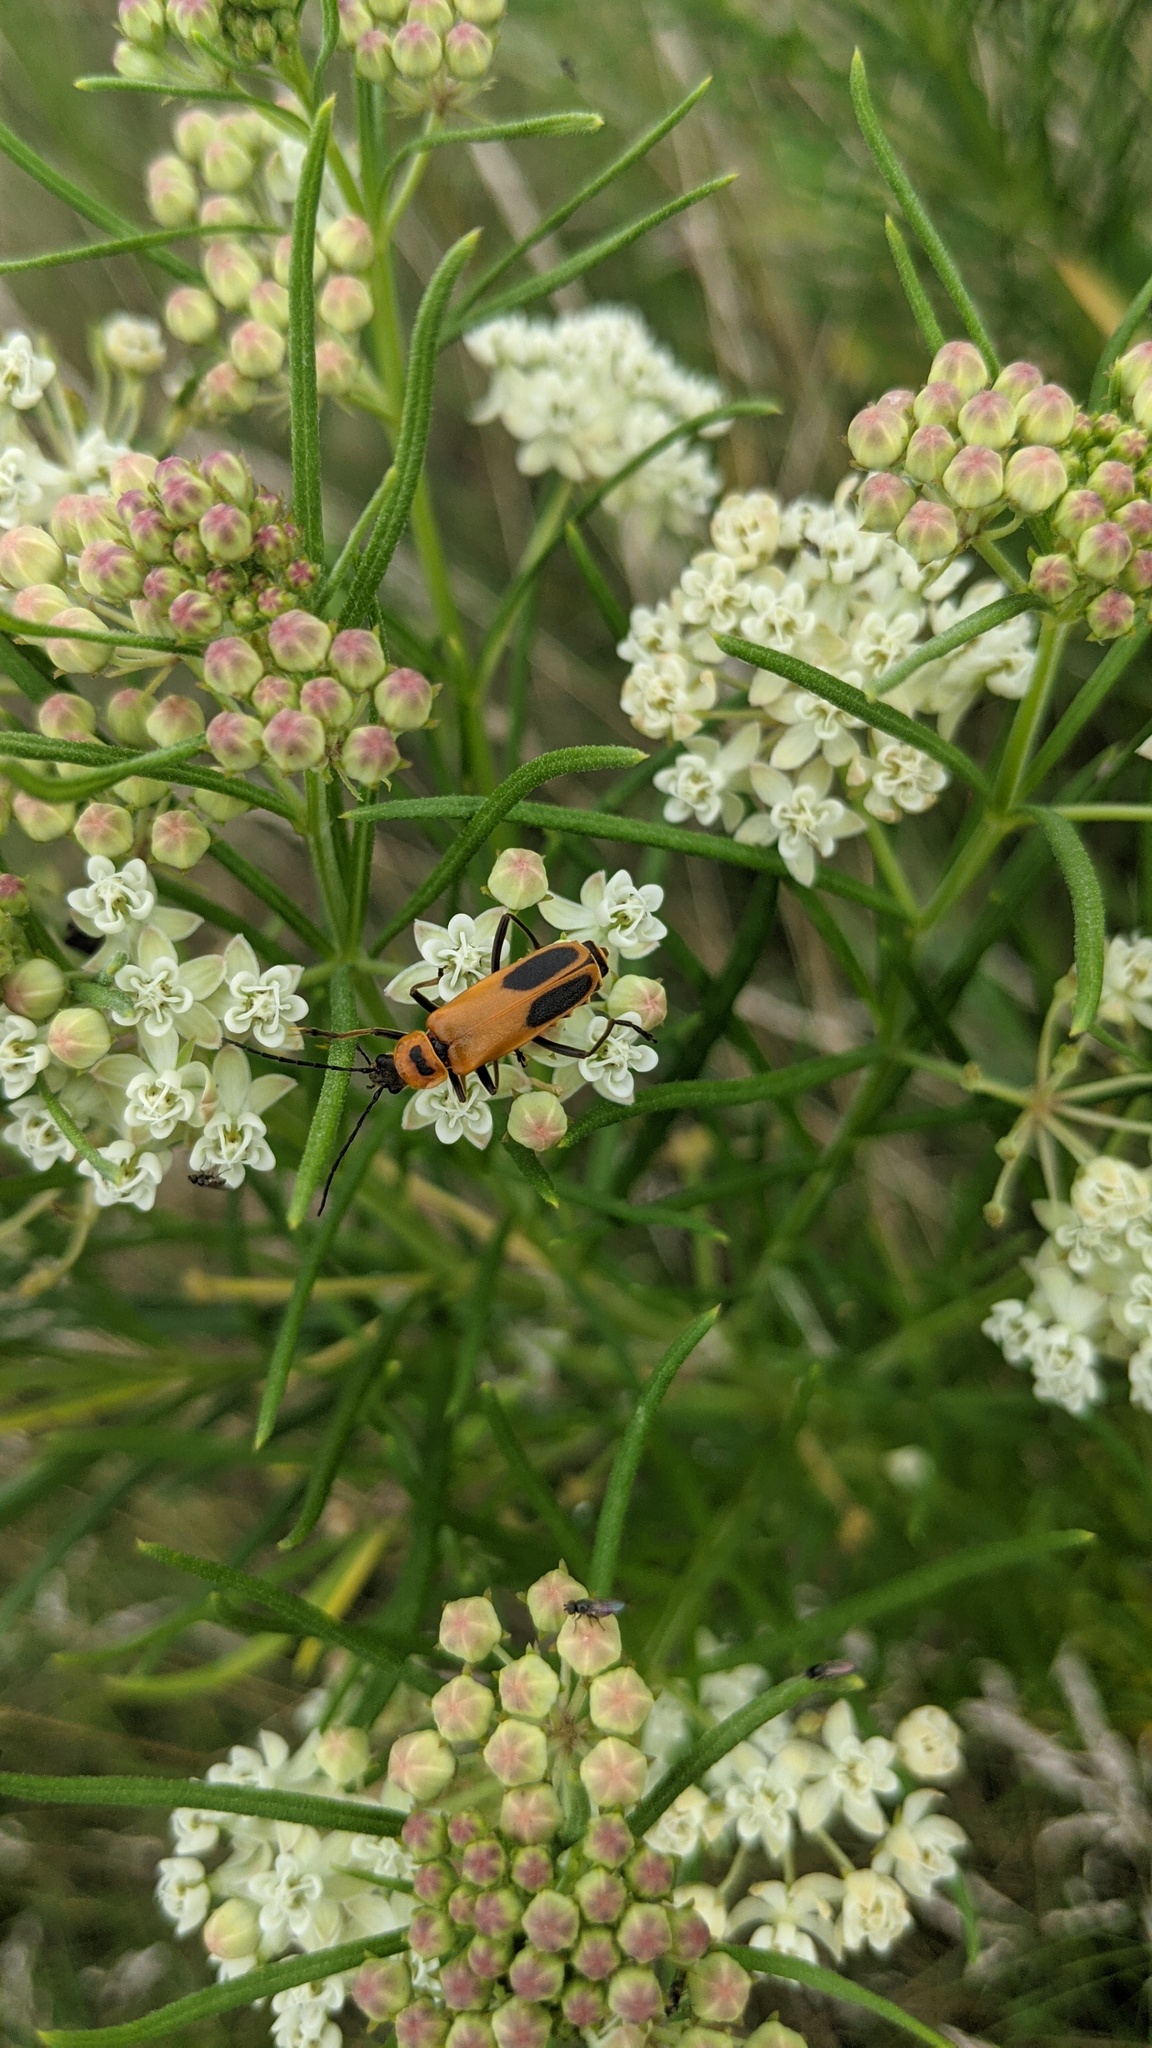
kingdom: Animalia
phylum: Arthropoda
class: Insecta
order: Coleoptera
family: Cantharidae
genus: Chauliognathus
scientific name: Chauliognathus pensylvanicus
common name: Goldenrod soldier beetle
